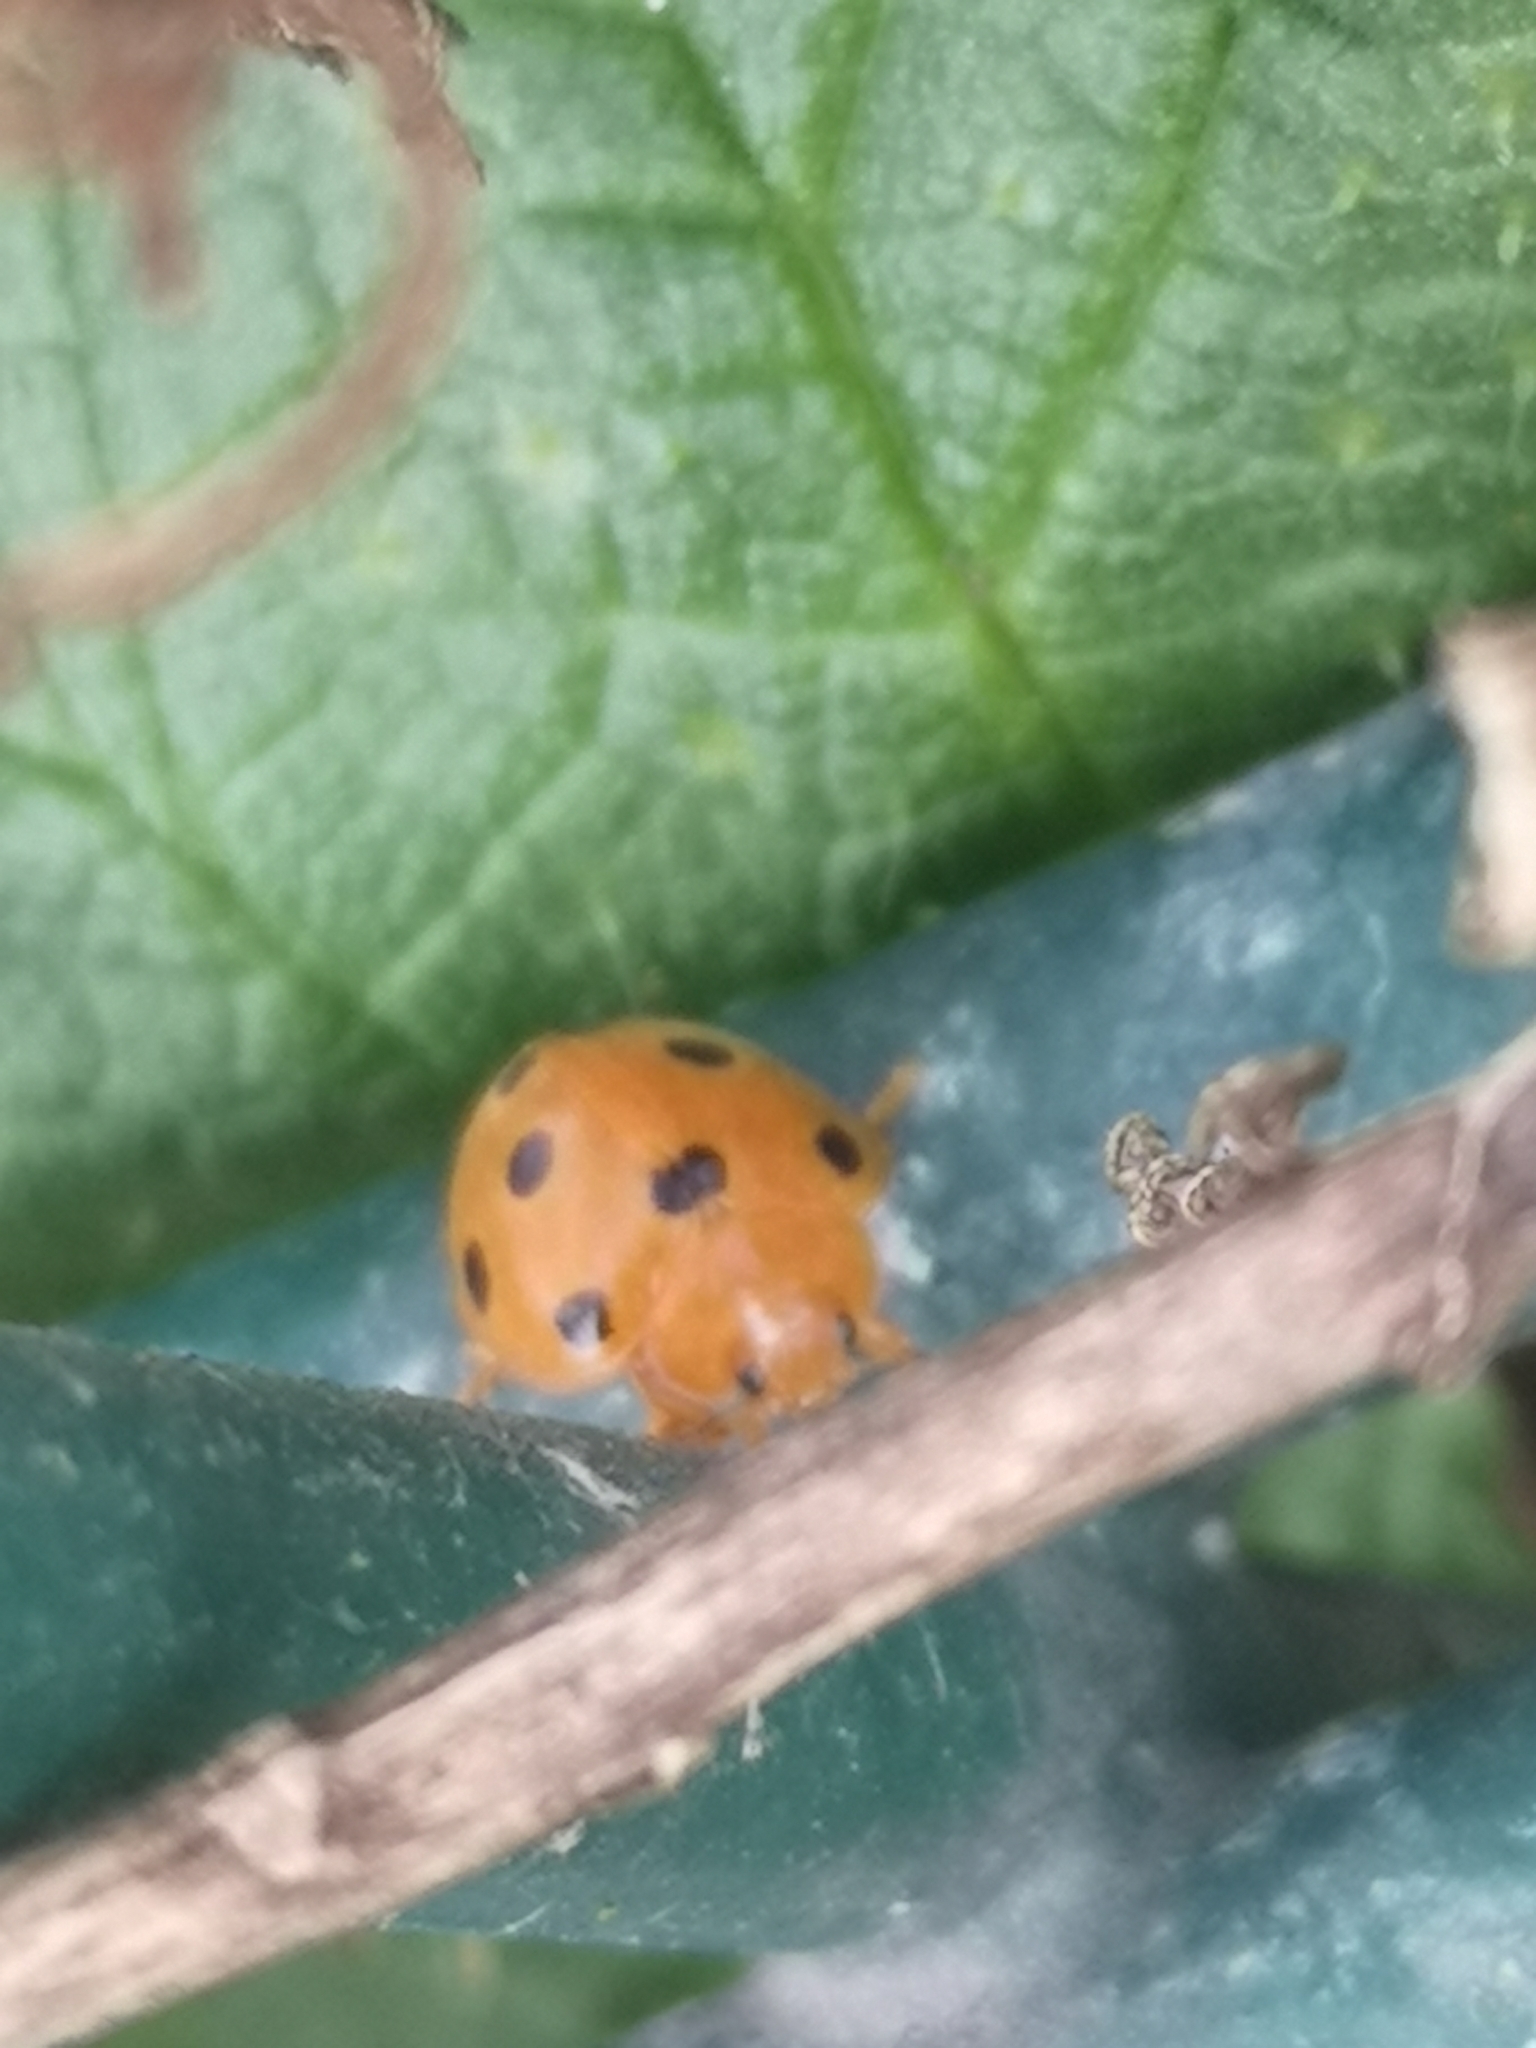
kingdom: Animalia
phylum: Arthropoda
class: Insecta
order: Coleoptera
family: Coccinellidae
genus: Henosepilachna
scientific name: Henosepilachna argus
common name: Bryony ladybird
